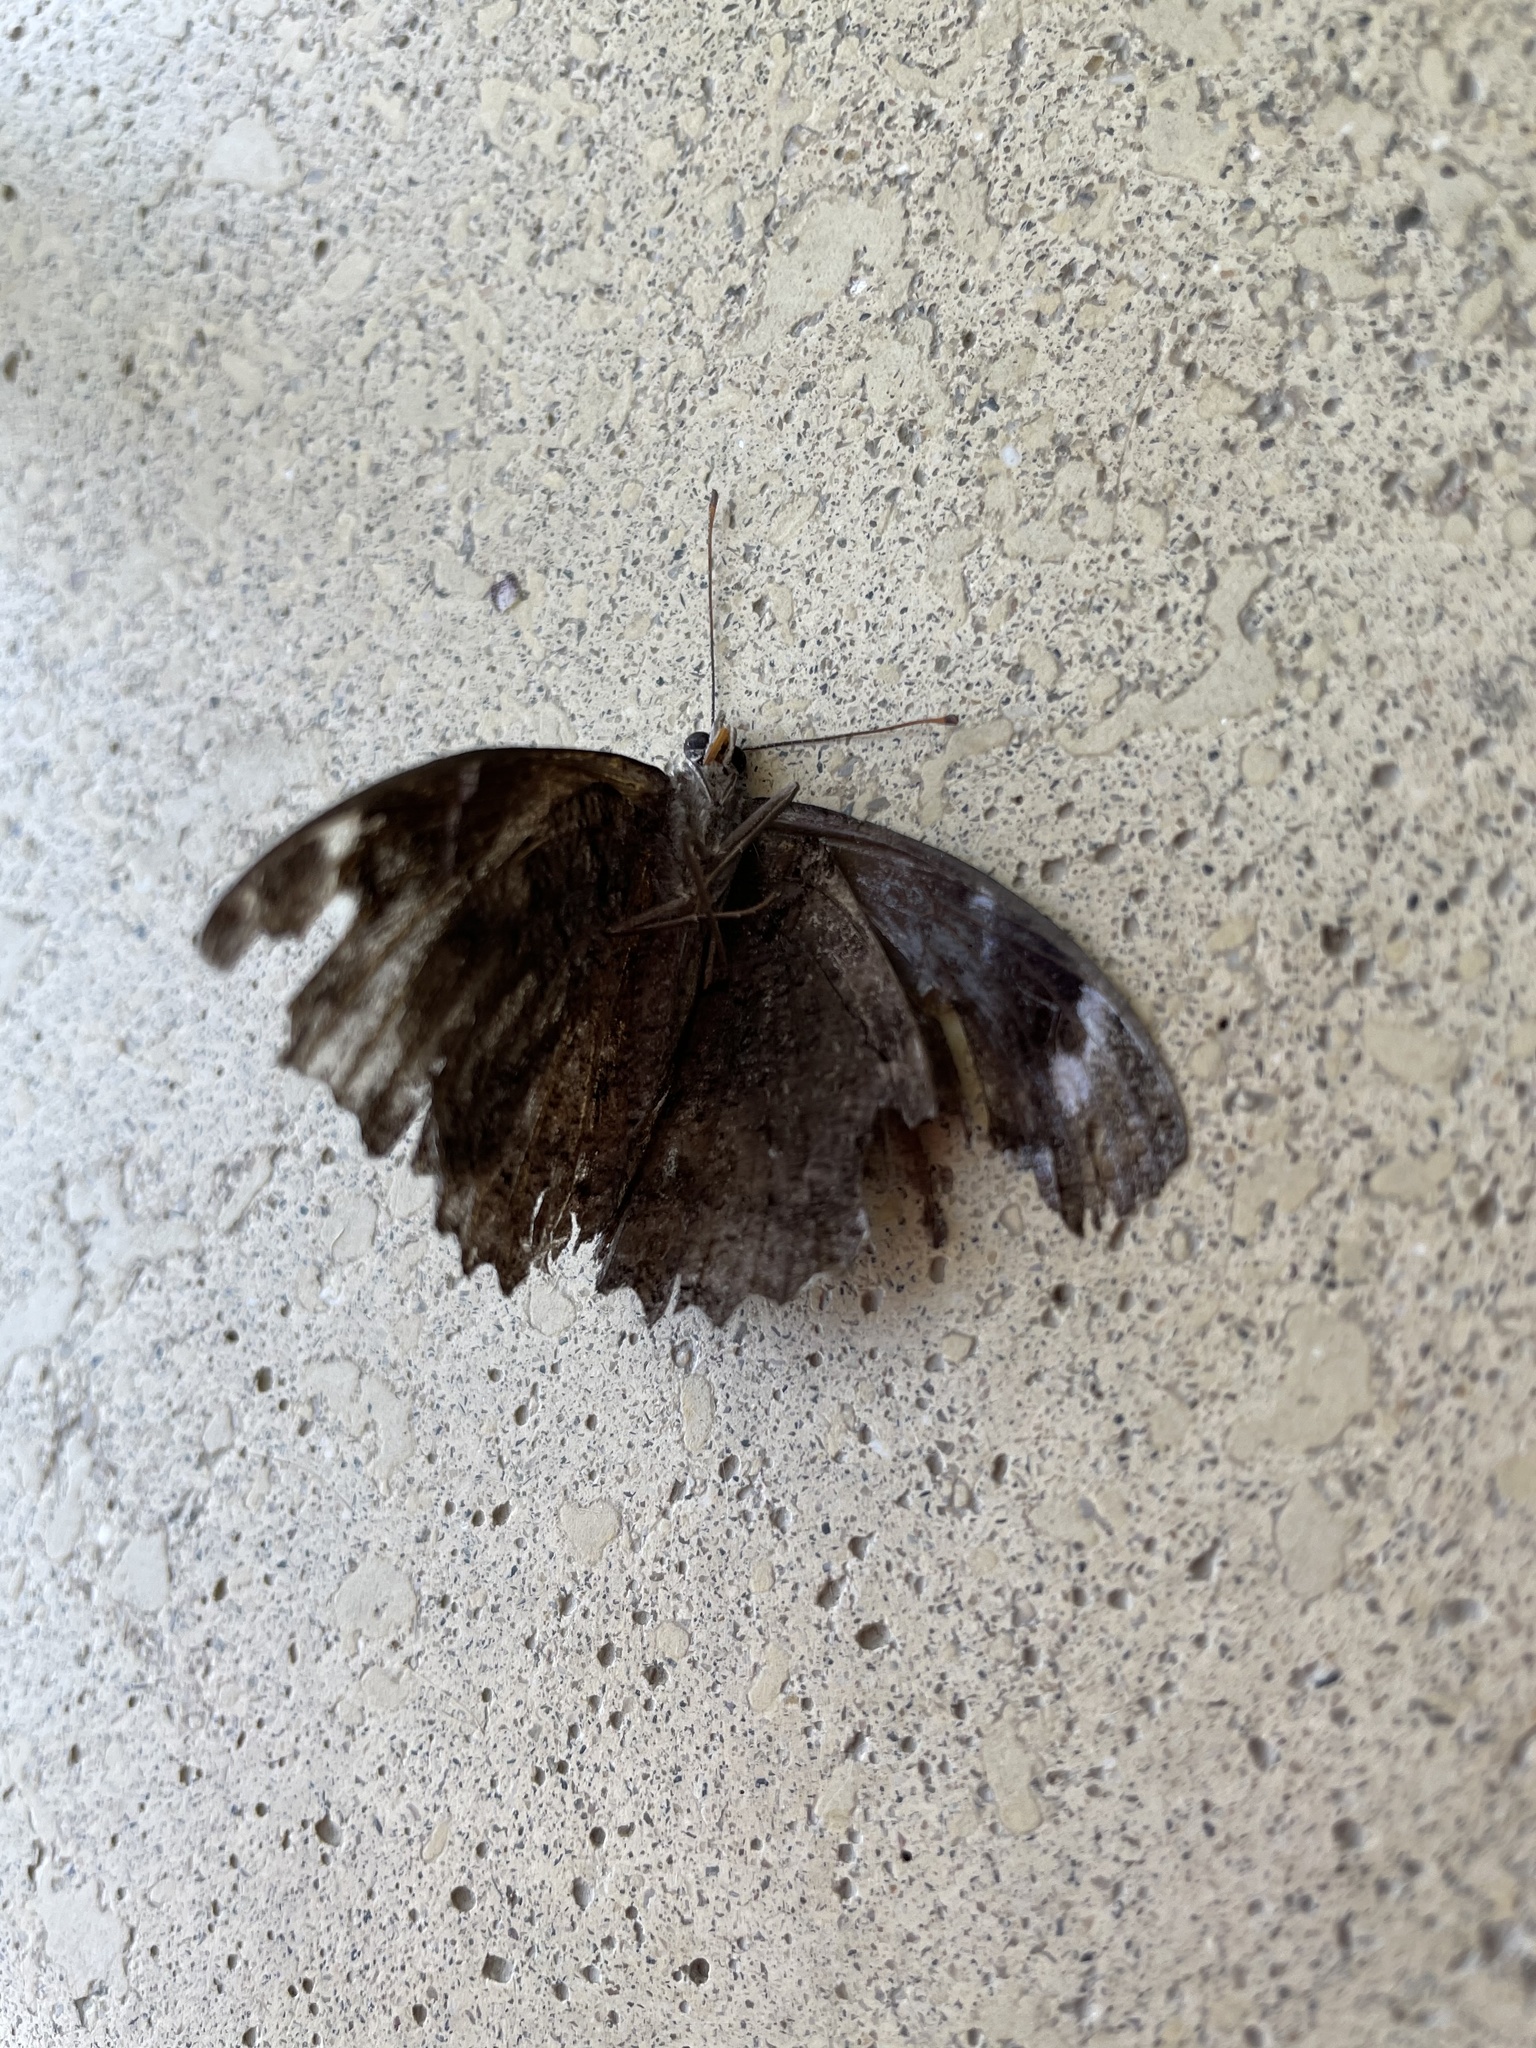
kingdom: Animalia
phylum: Arthropoda
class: Insecta
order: Lepidoptera
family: Nymphalidae
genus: Myscelia
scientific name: Myscelia cyananthe
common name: Blackened bluewing
